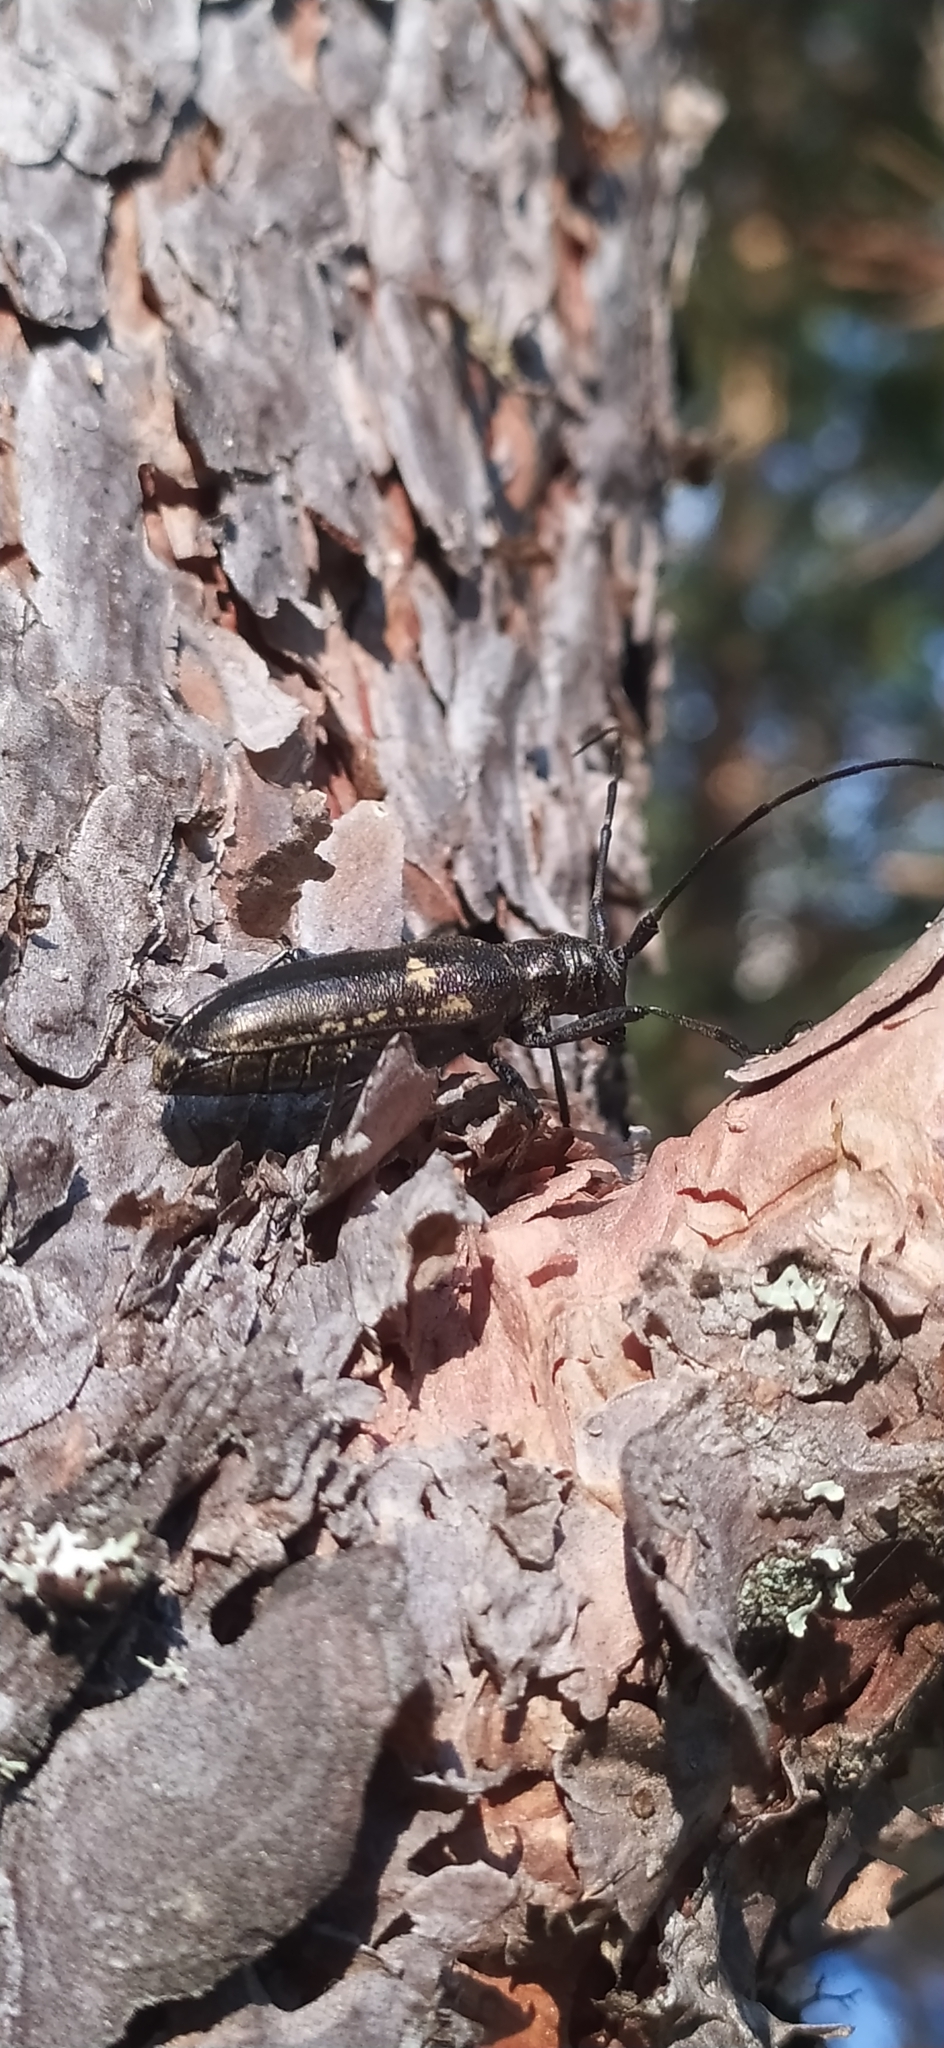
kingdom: Animalia
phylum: Arthropoda
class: Insecta
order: Coleoptera
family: Cerambycidae
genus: Monochamus
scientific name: Monochamus sartor
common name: Pine sawyer
